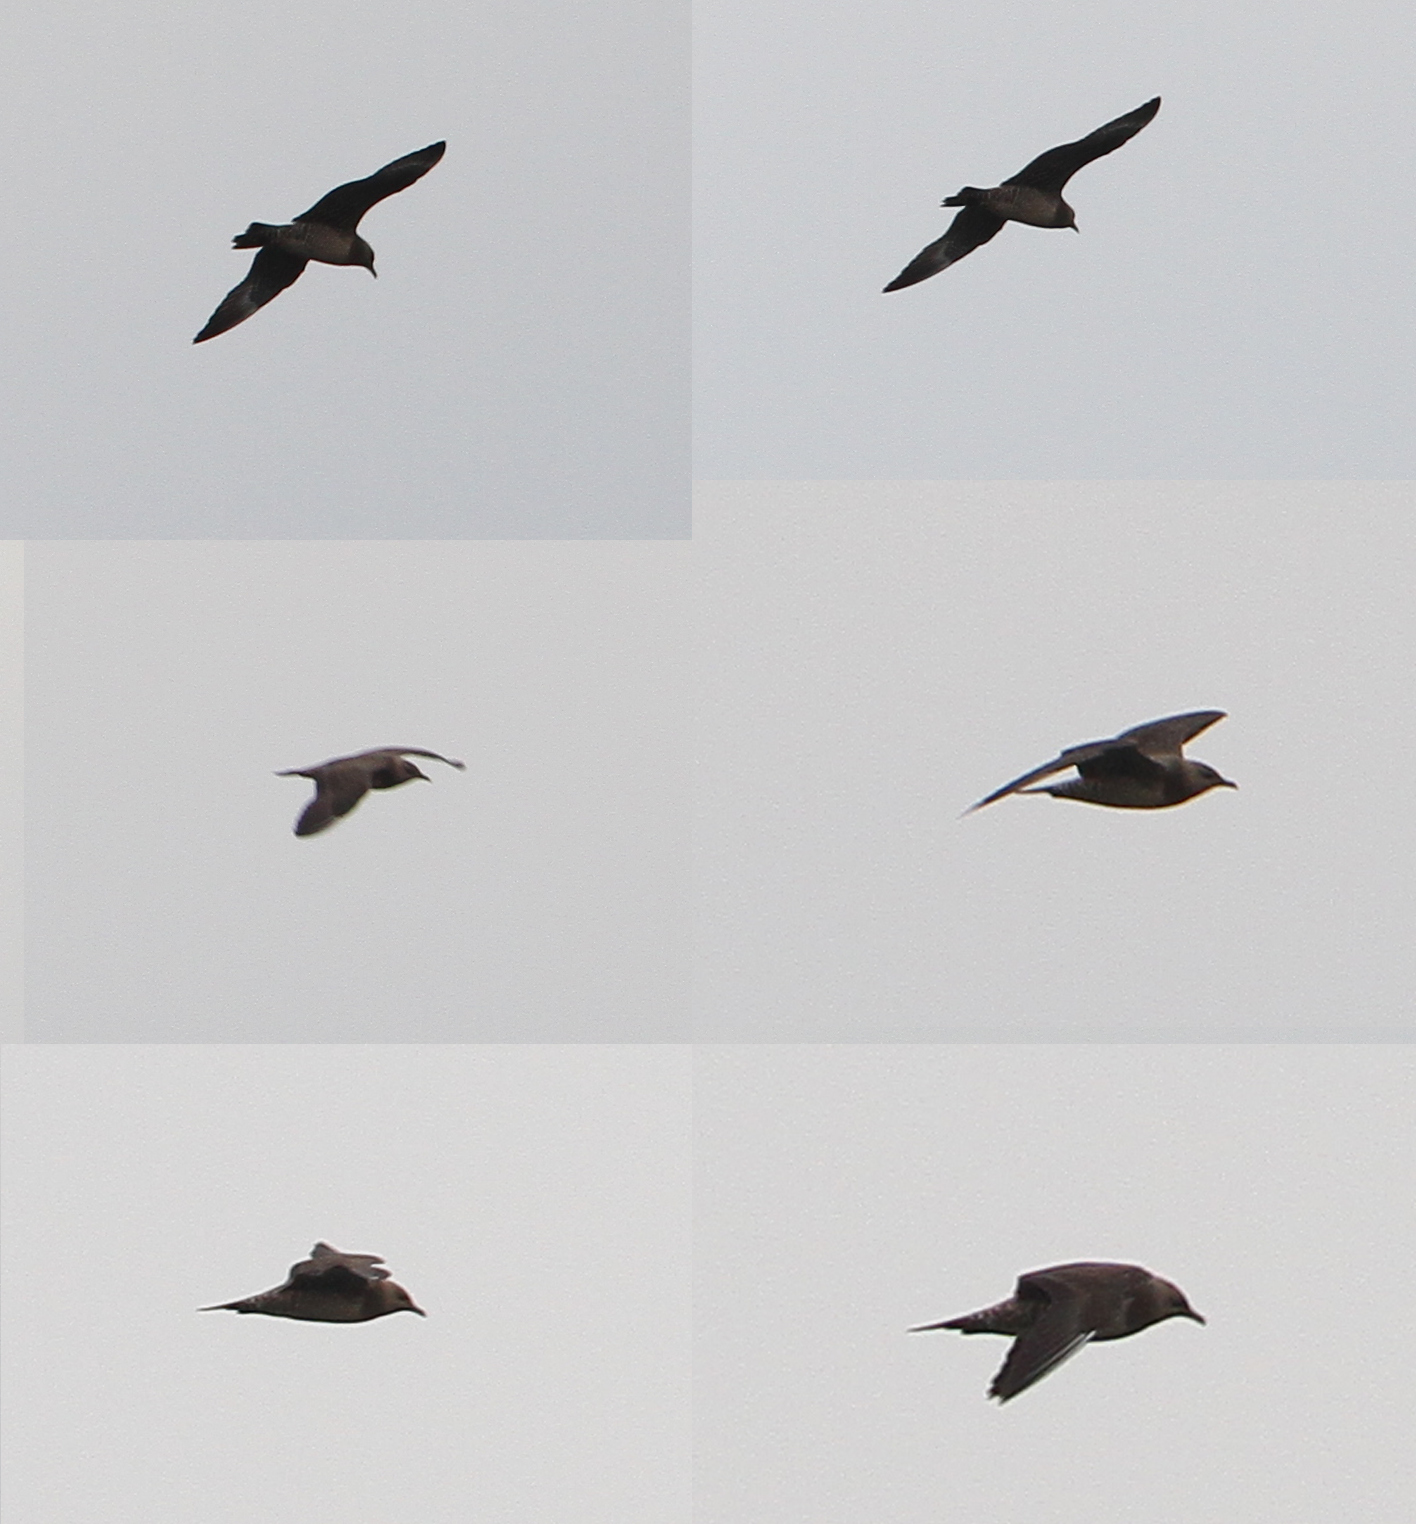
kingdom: Animalia
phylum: Chordata
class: Aves
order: Charadriiformes
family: Stercorariidae
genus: Stercorarius
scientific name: Stercorarius longicaudus
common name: Long-tailed jaeger
